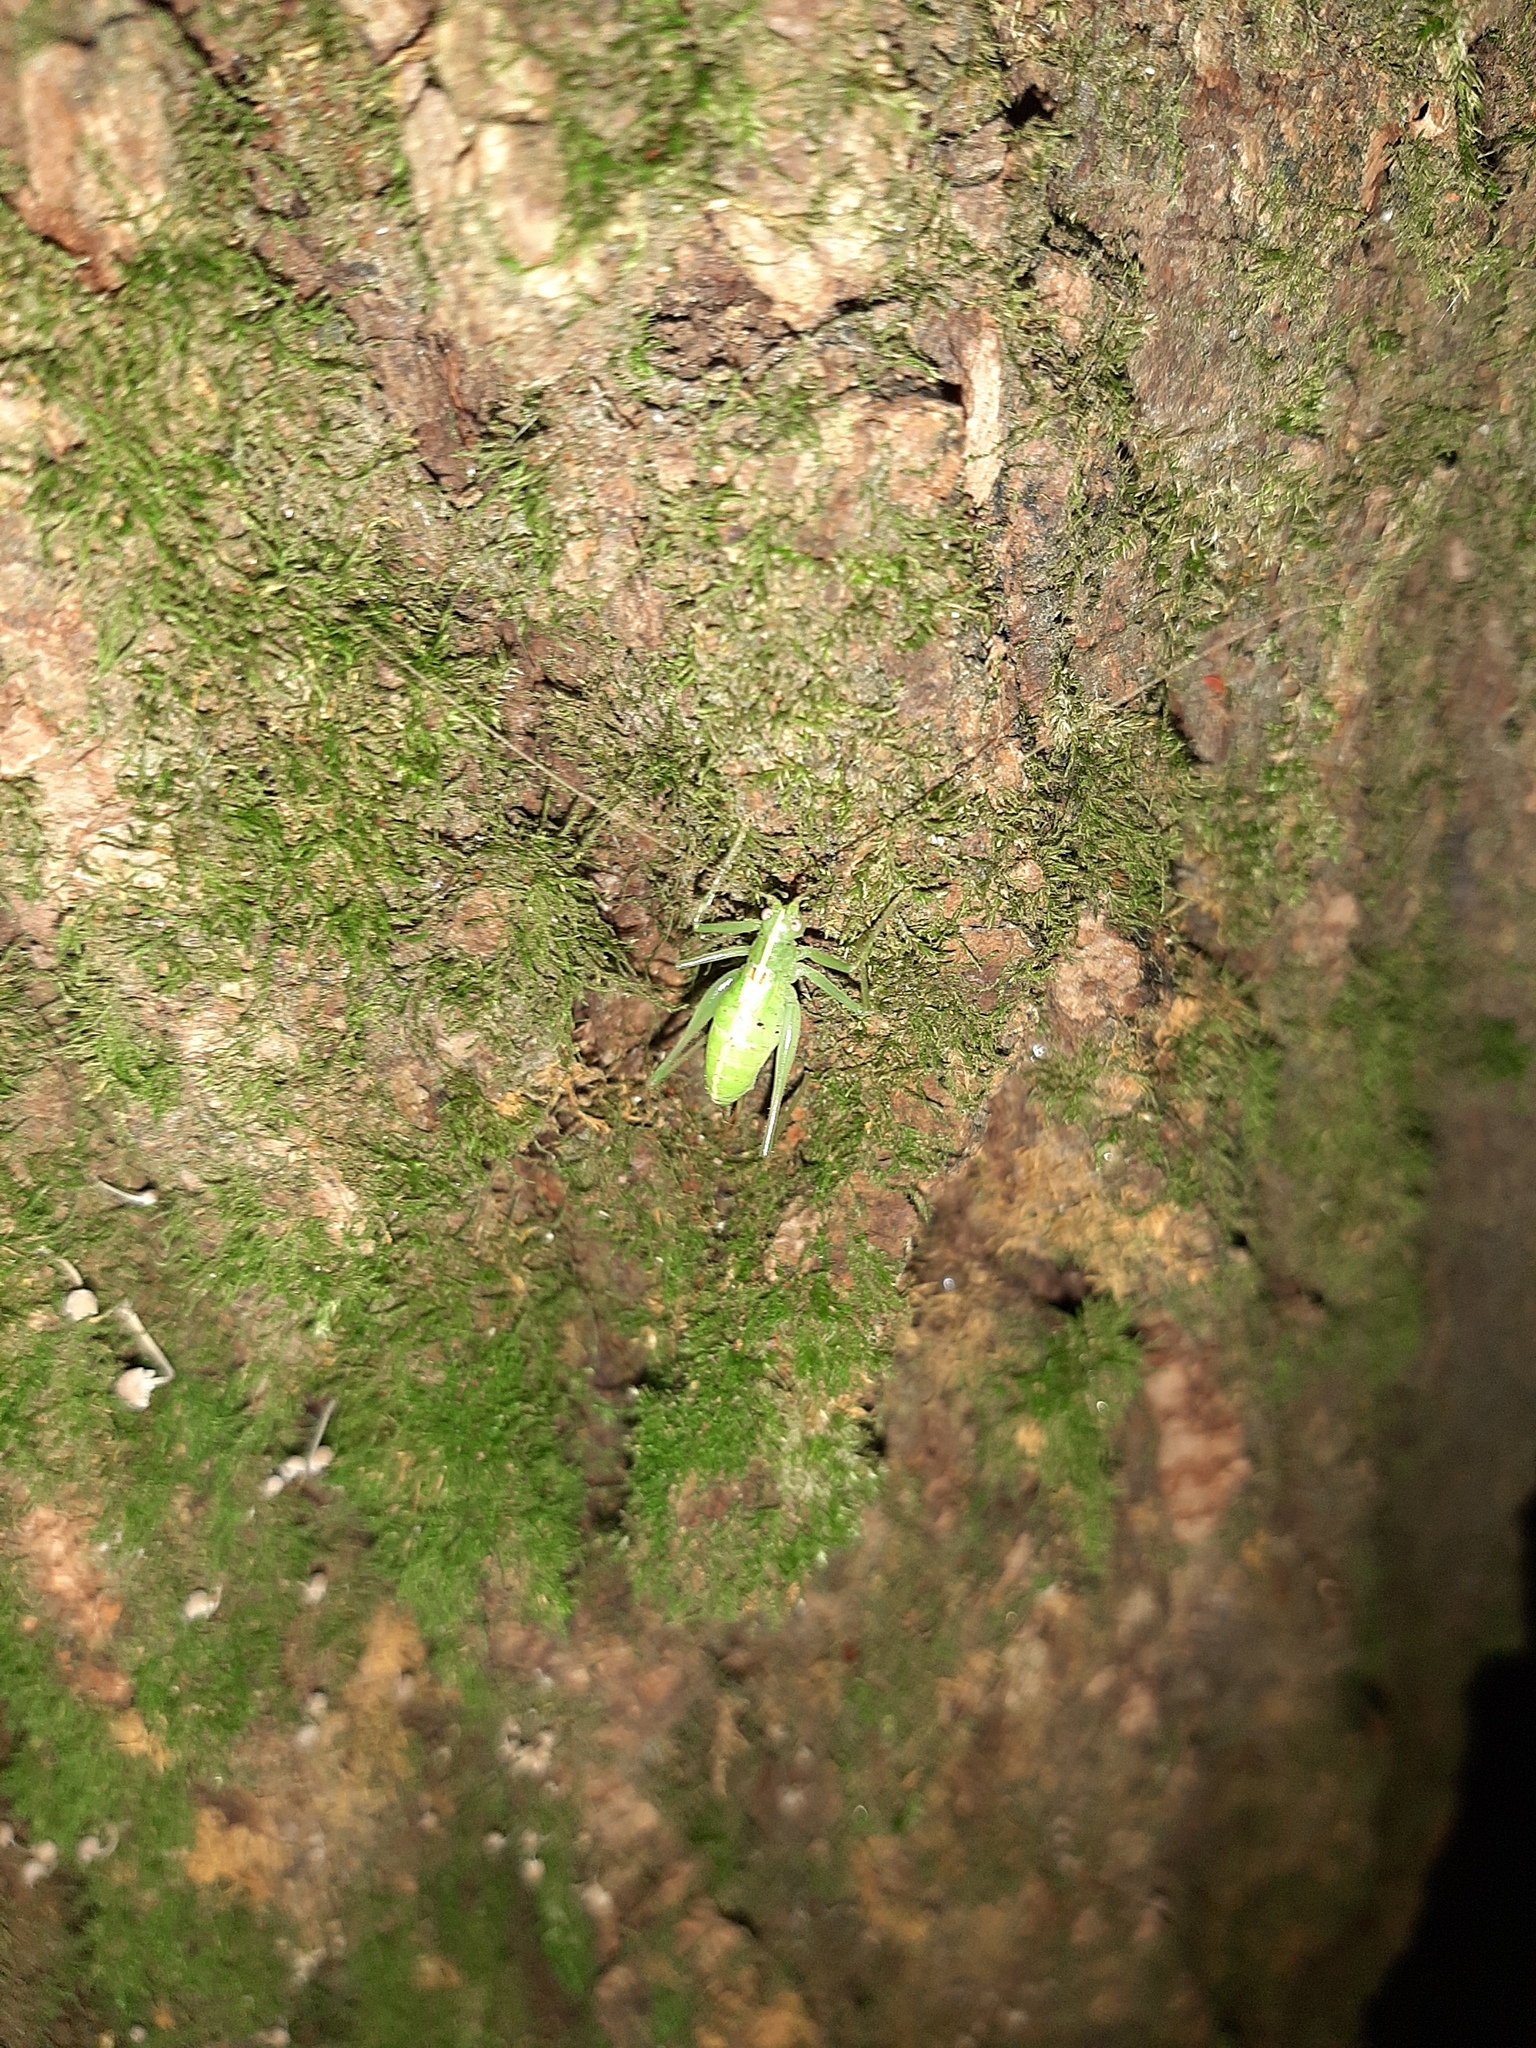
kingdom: Animalia
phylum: Arthropoda
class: Insecta
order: Orthoptera
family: Tettigoniidae
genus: Meconema
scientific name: Meconema meridionale
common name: Southern oak bush-cricket
